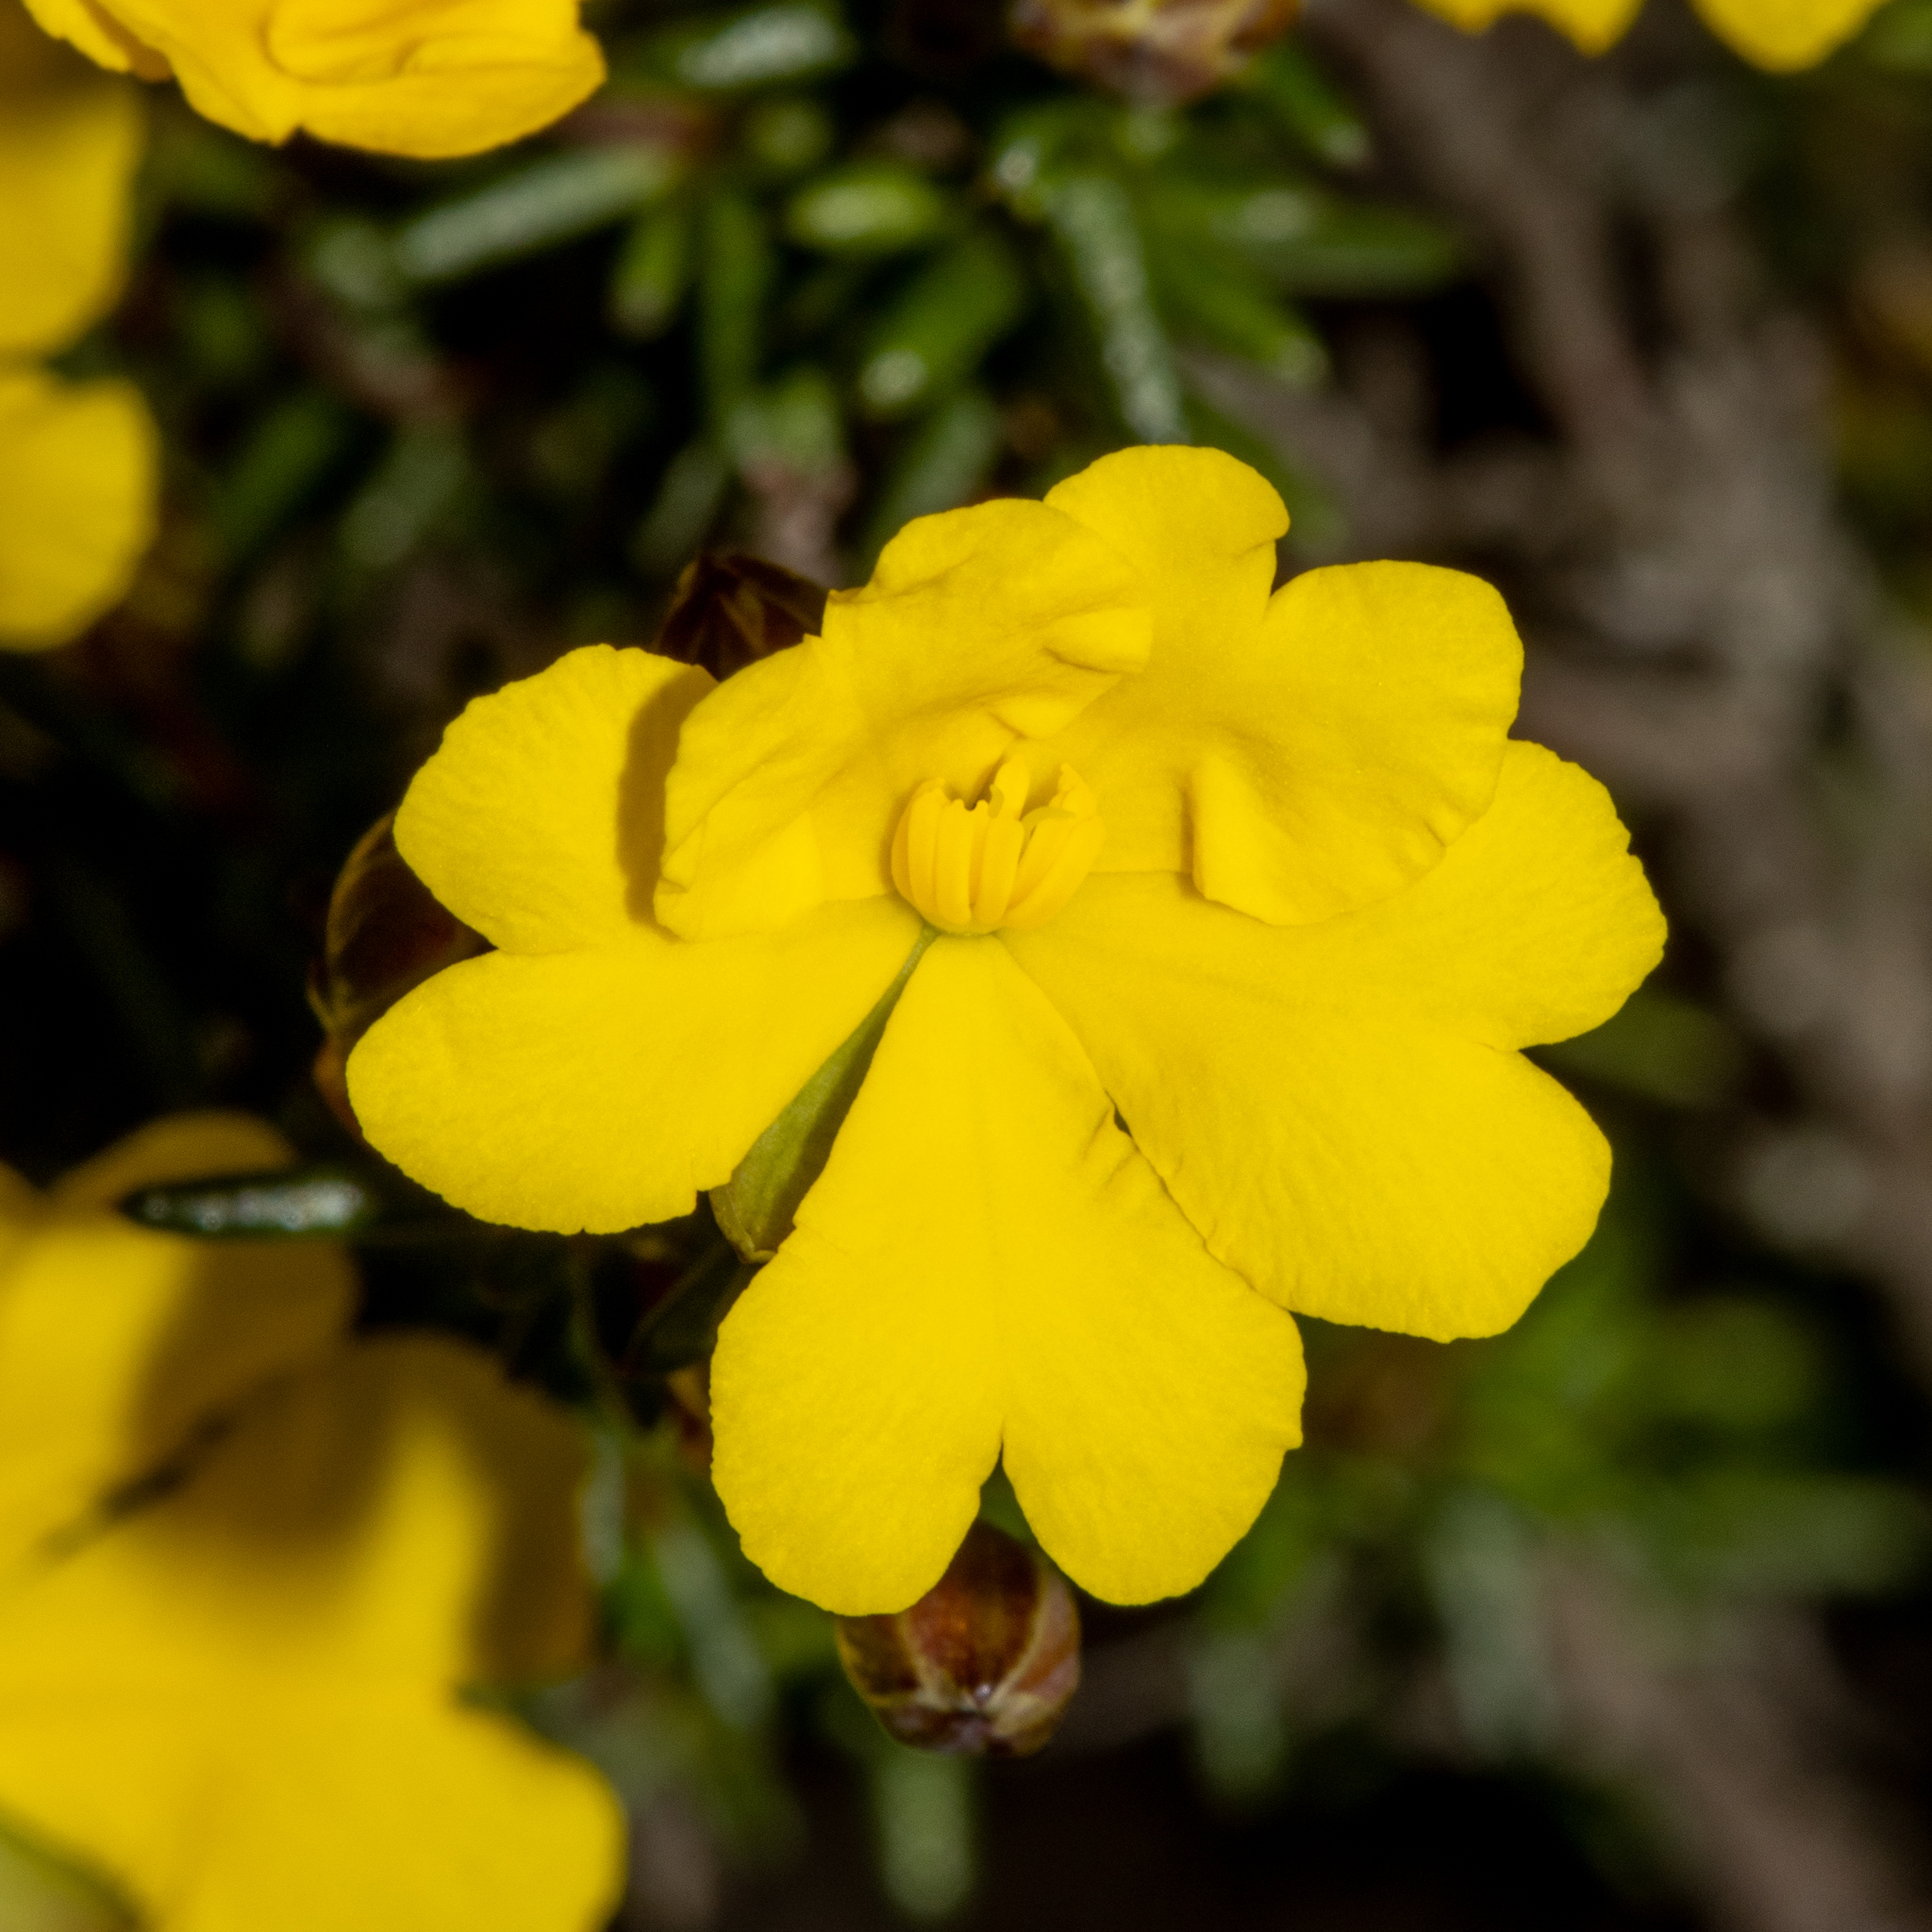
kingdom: Plantae
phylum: Tracheophyta
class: Magnoliopsida
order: Dilleniales
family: Dilleniaceae
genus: Hibbertia
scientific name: Hibbertia gracilipes
